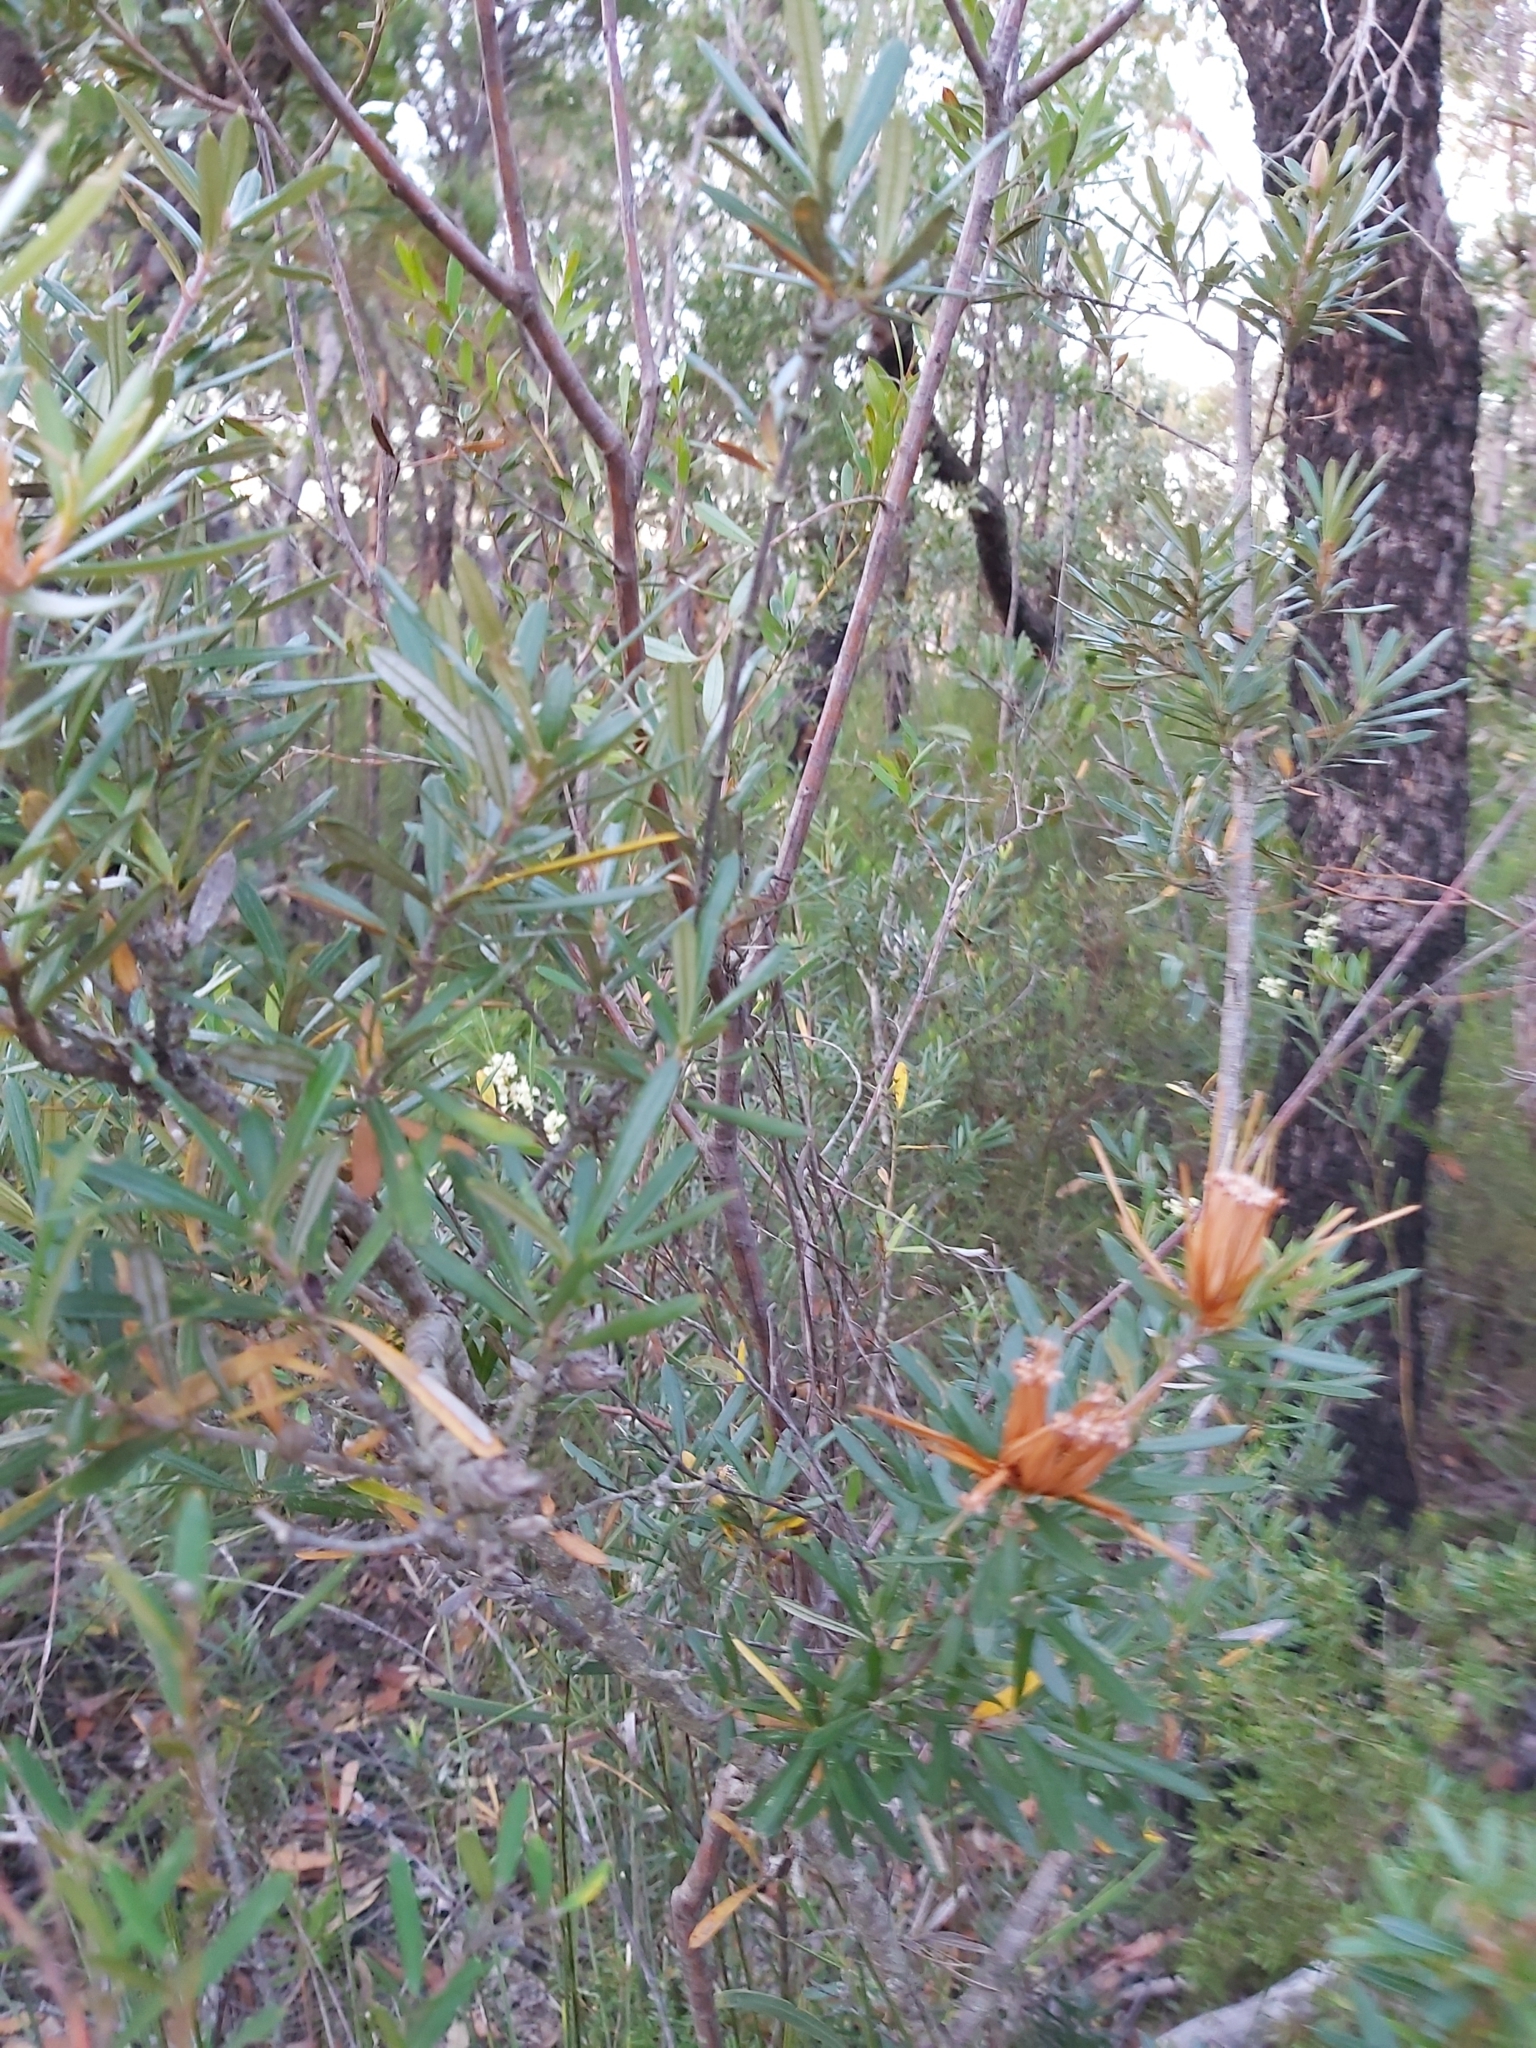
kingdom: Plantae
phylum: Tracheophyta
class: Magnoliopsida
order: Proteales
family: Proteaceae
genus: Lambertia
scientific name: Lambertia formosa
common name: Mountain-devil
